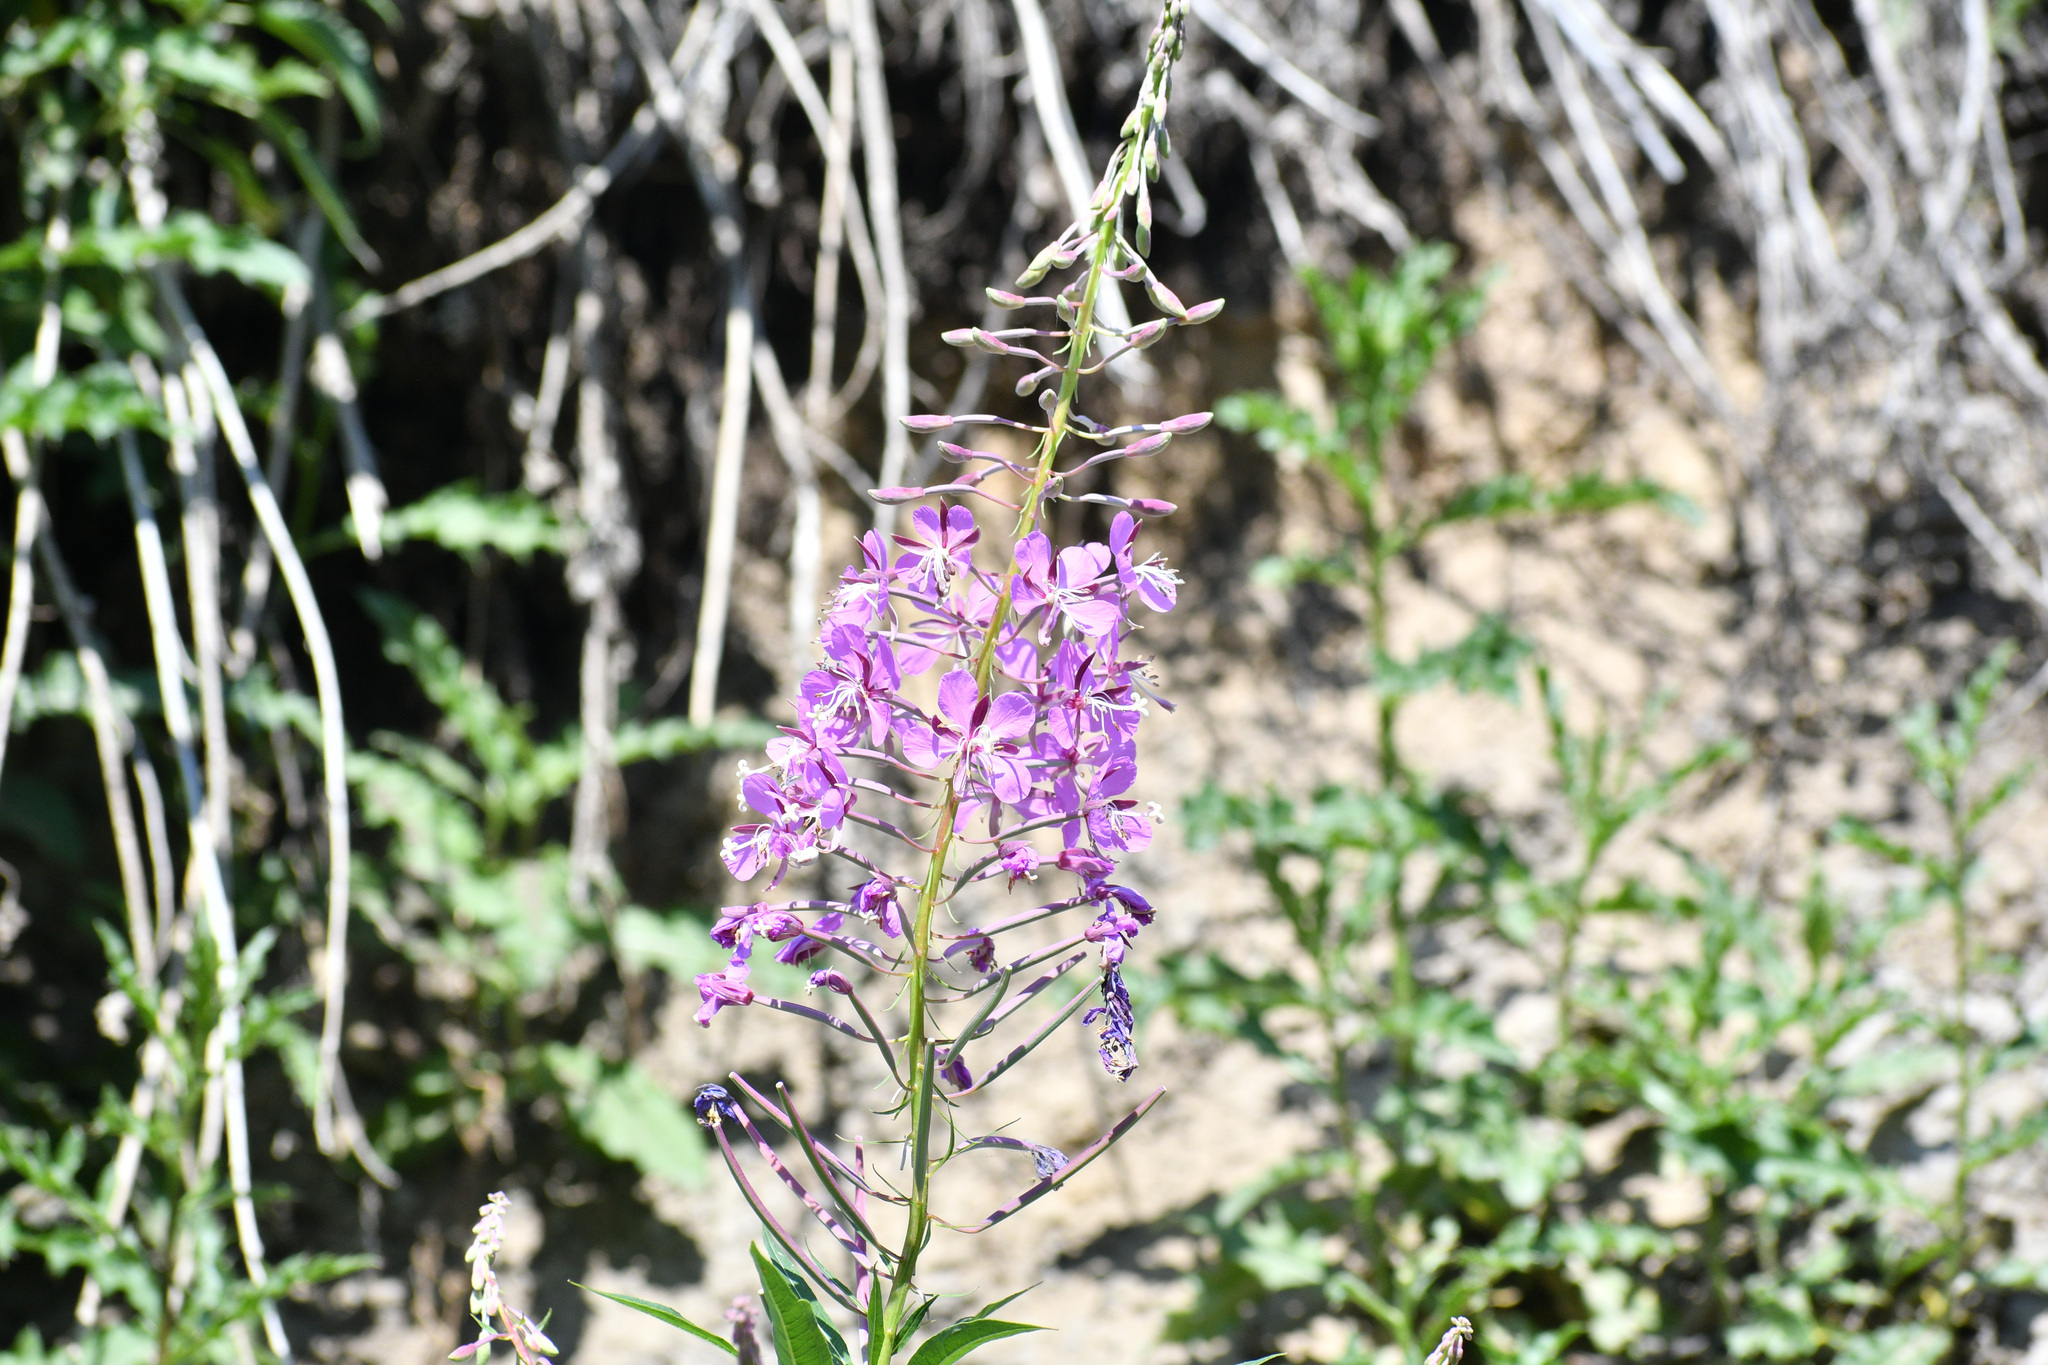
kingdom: Plantae
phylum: Tracheophyta
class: Magnoliopsida
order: Myrtales
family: Onagraceae
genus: Chamaenerion
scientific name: Chamaenerion angustifolium
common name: Fireweed
